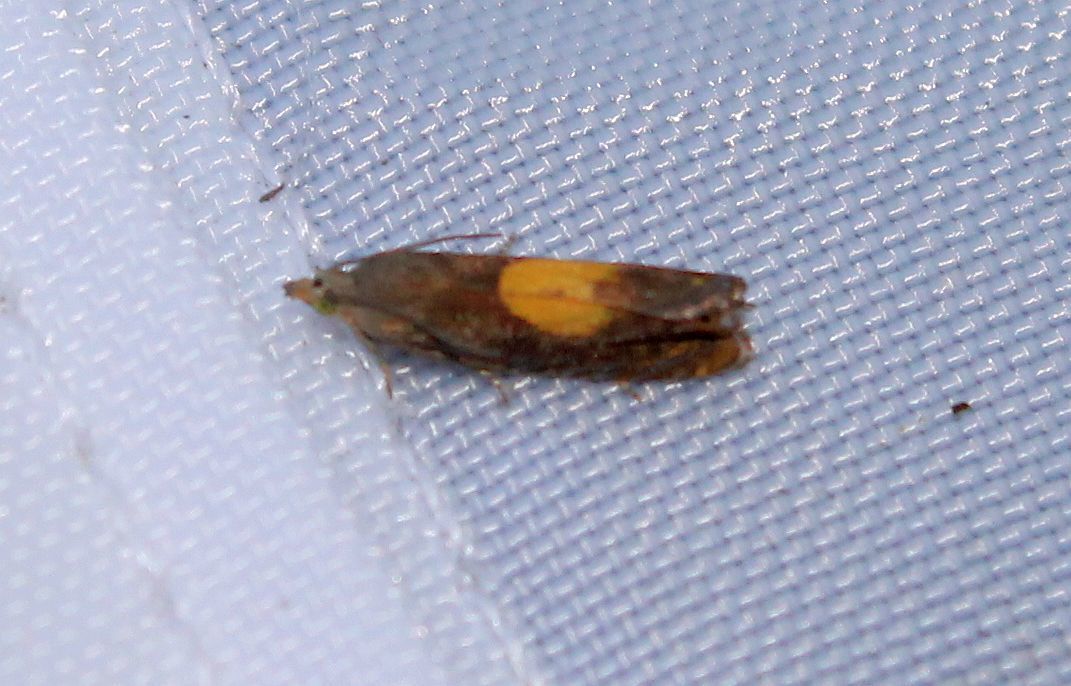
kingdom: Animalia
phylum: Arthropoda
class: Insecta
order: Lepidoptera
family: Tortricidae
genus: Pammene
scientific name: Pammene regiana
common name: Regal piercer
